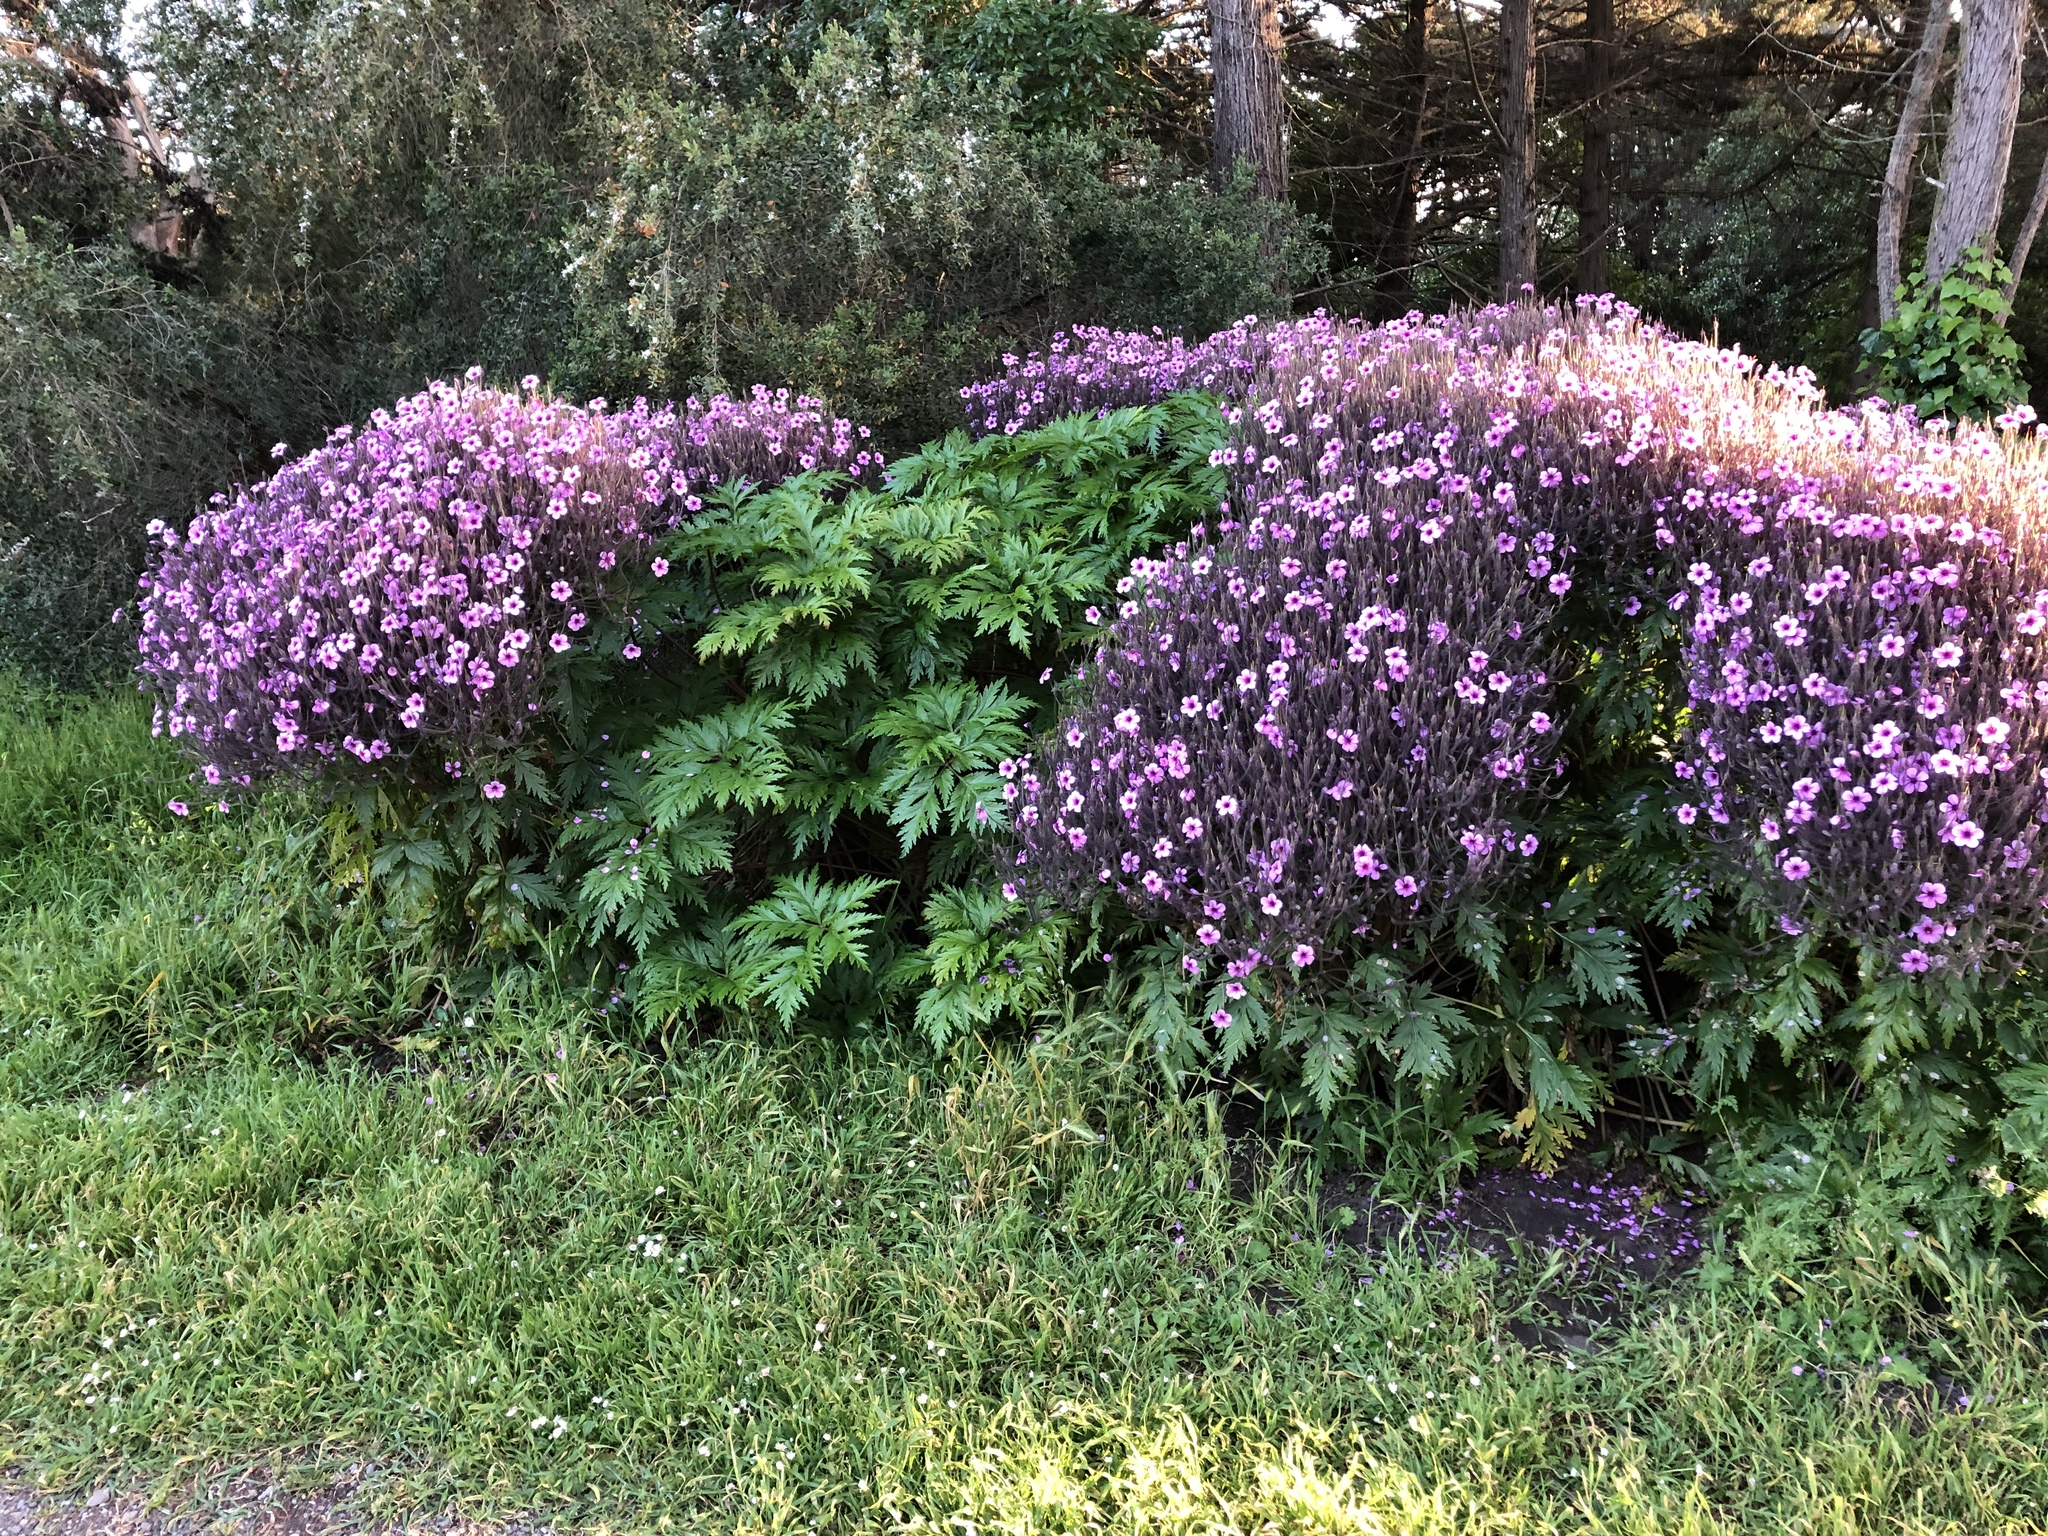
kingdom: Plantae
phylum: Tracheophyta
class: Magnoliopsida
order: Geraniales
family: Geraniaceae
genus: Geranium
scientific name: Geranium maderense
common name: Giant herb-robert
